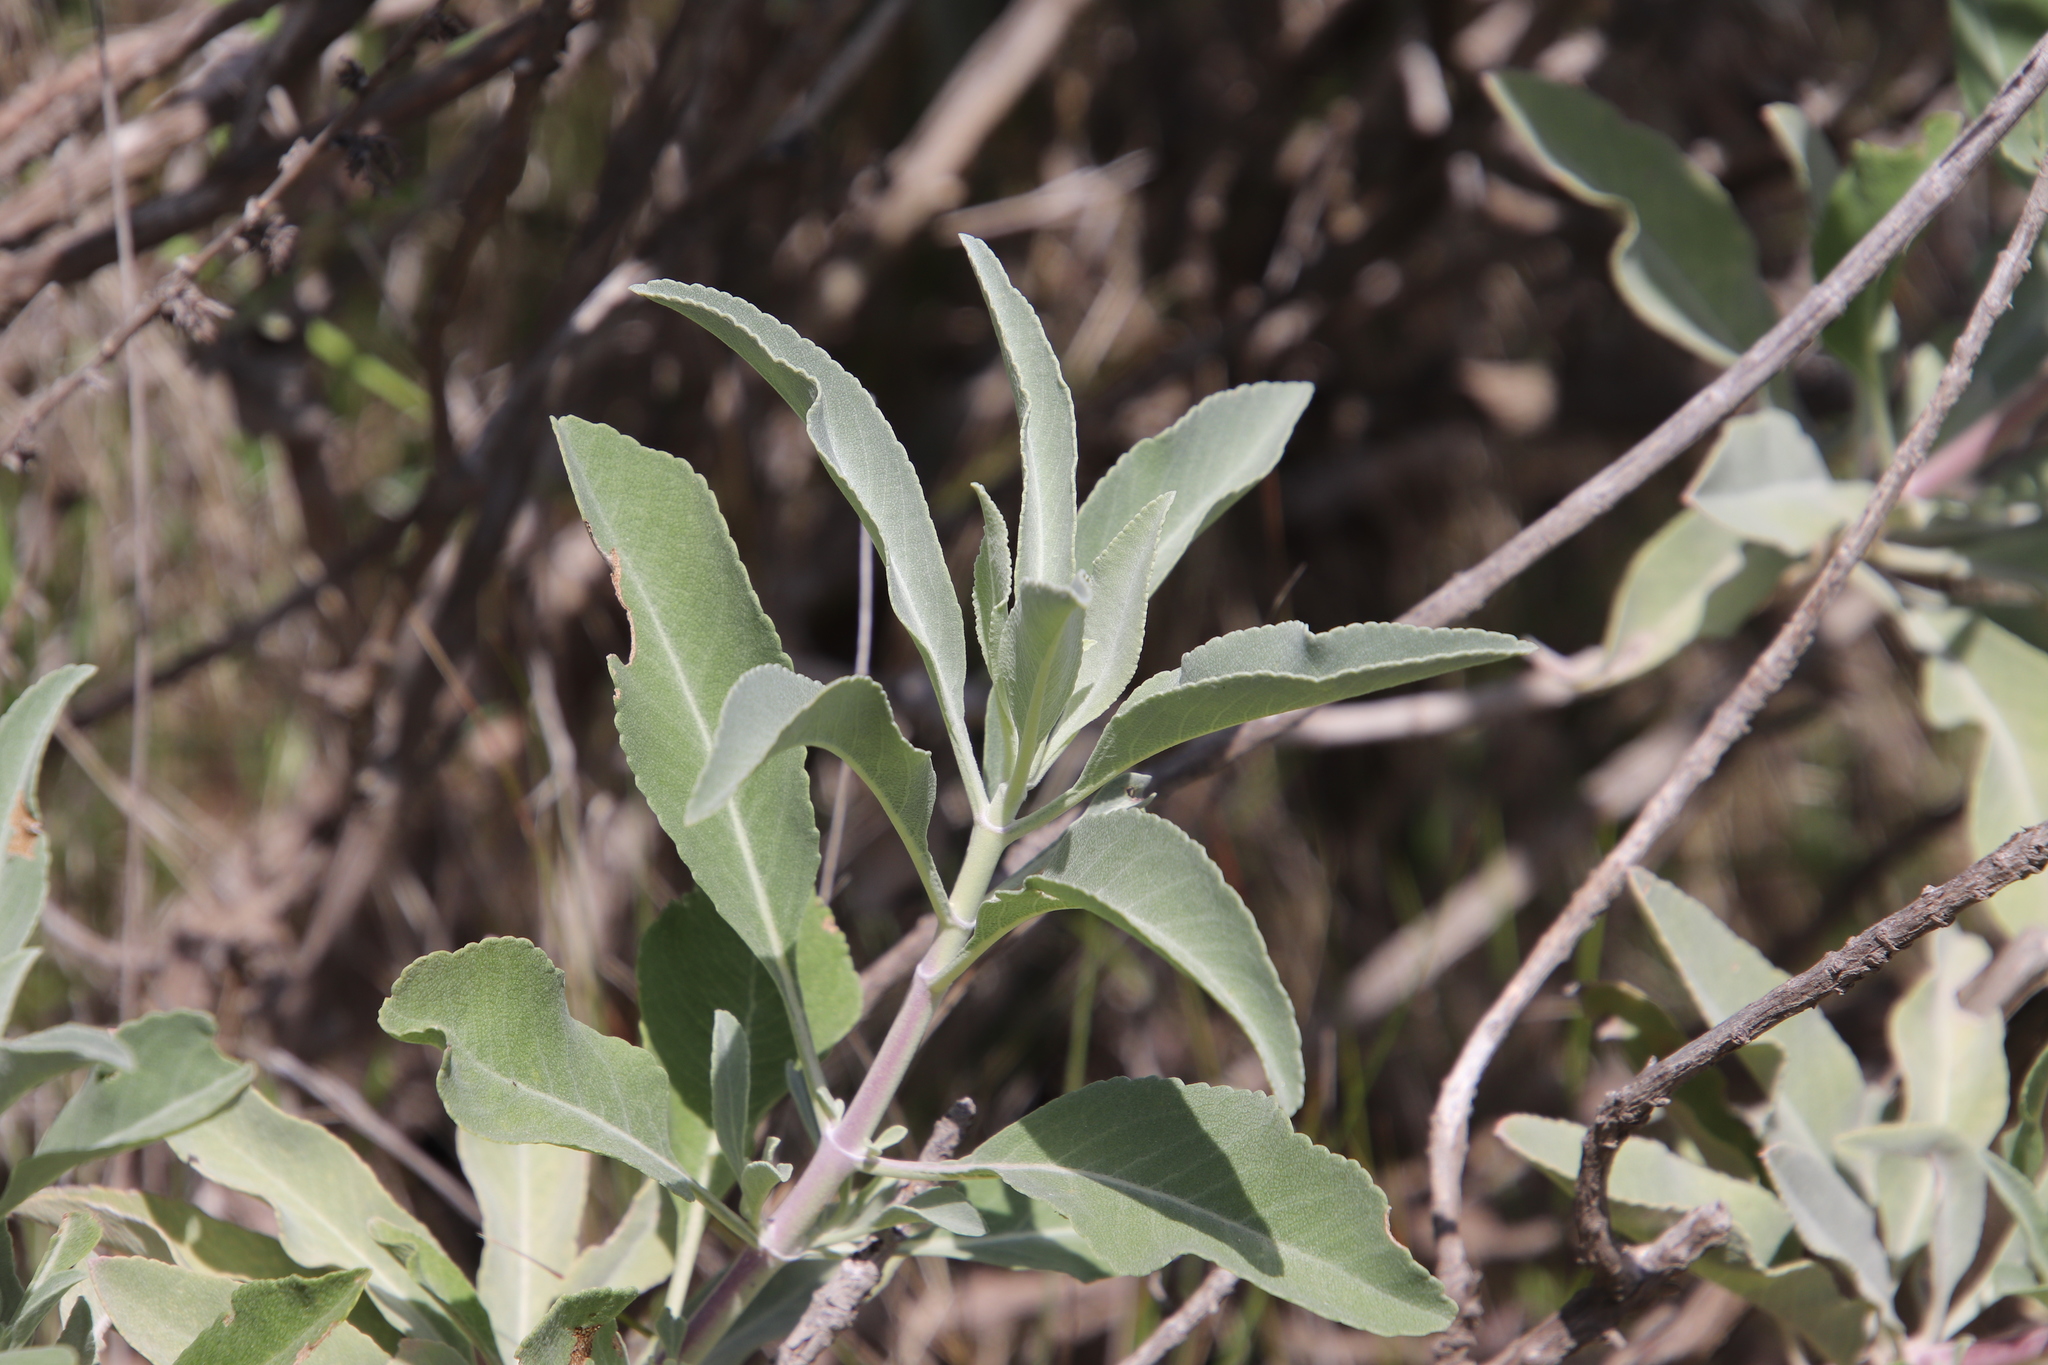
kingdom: Plantae
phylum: Tracheophyta
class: Magnoliopsida
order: Lamiales
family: Lamiaceae
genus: Salvia
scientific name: Salvia apiana
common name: White sage
